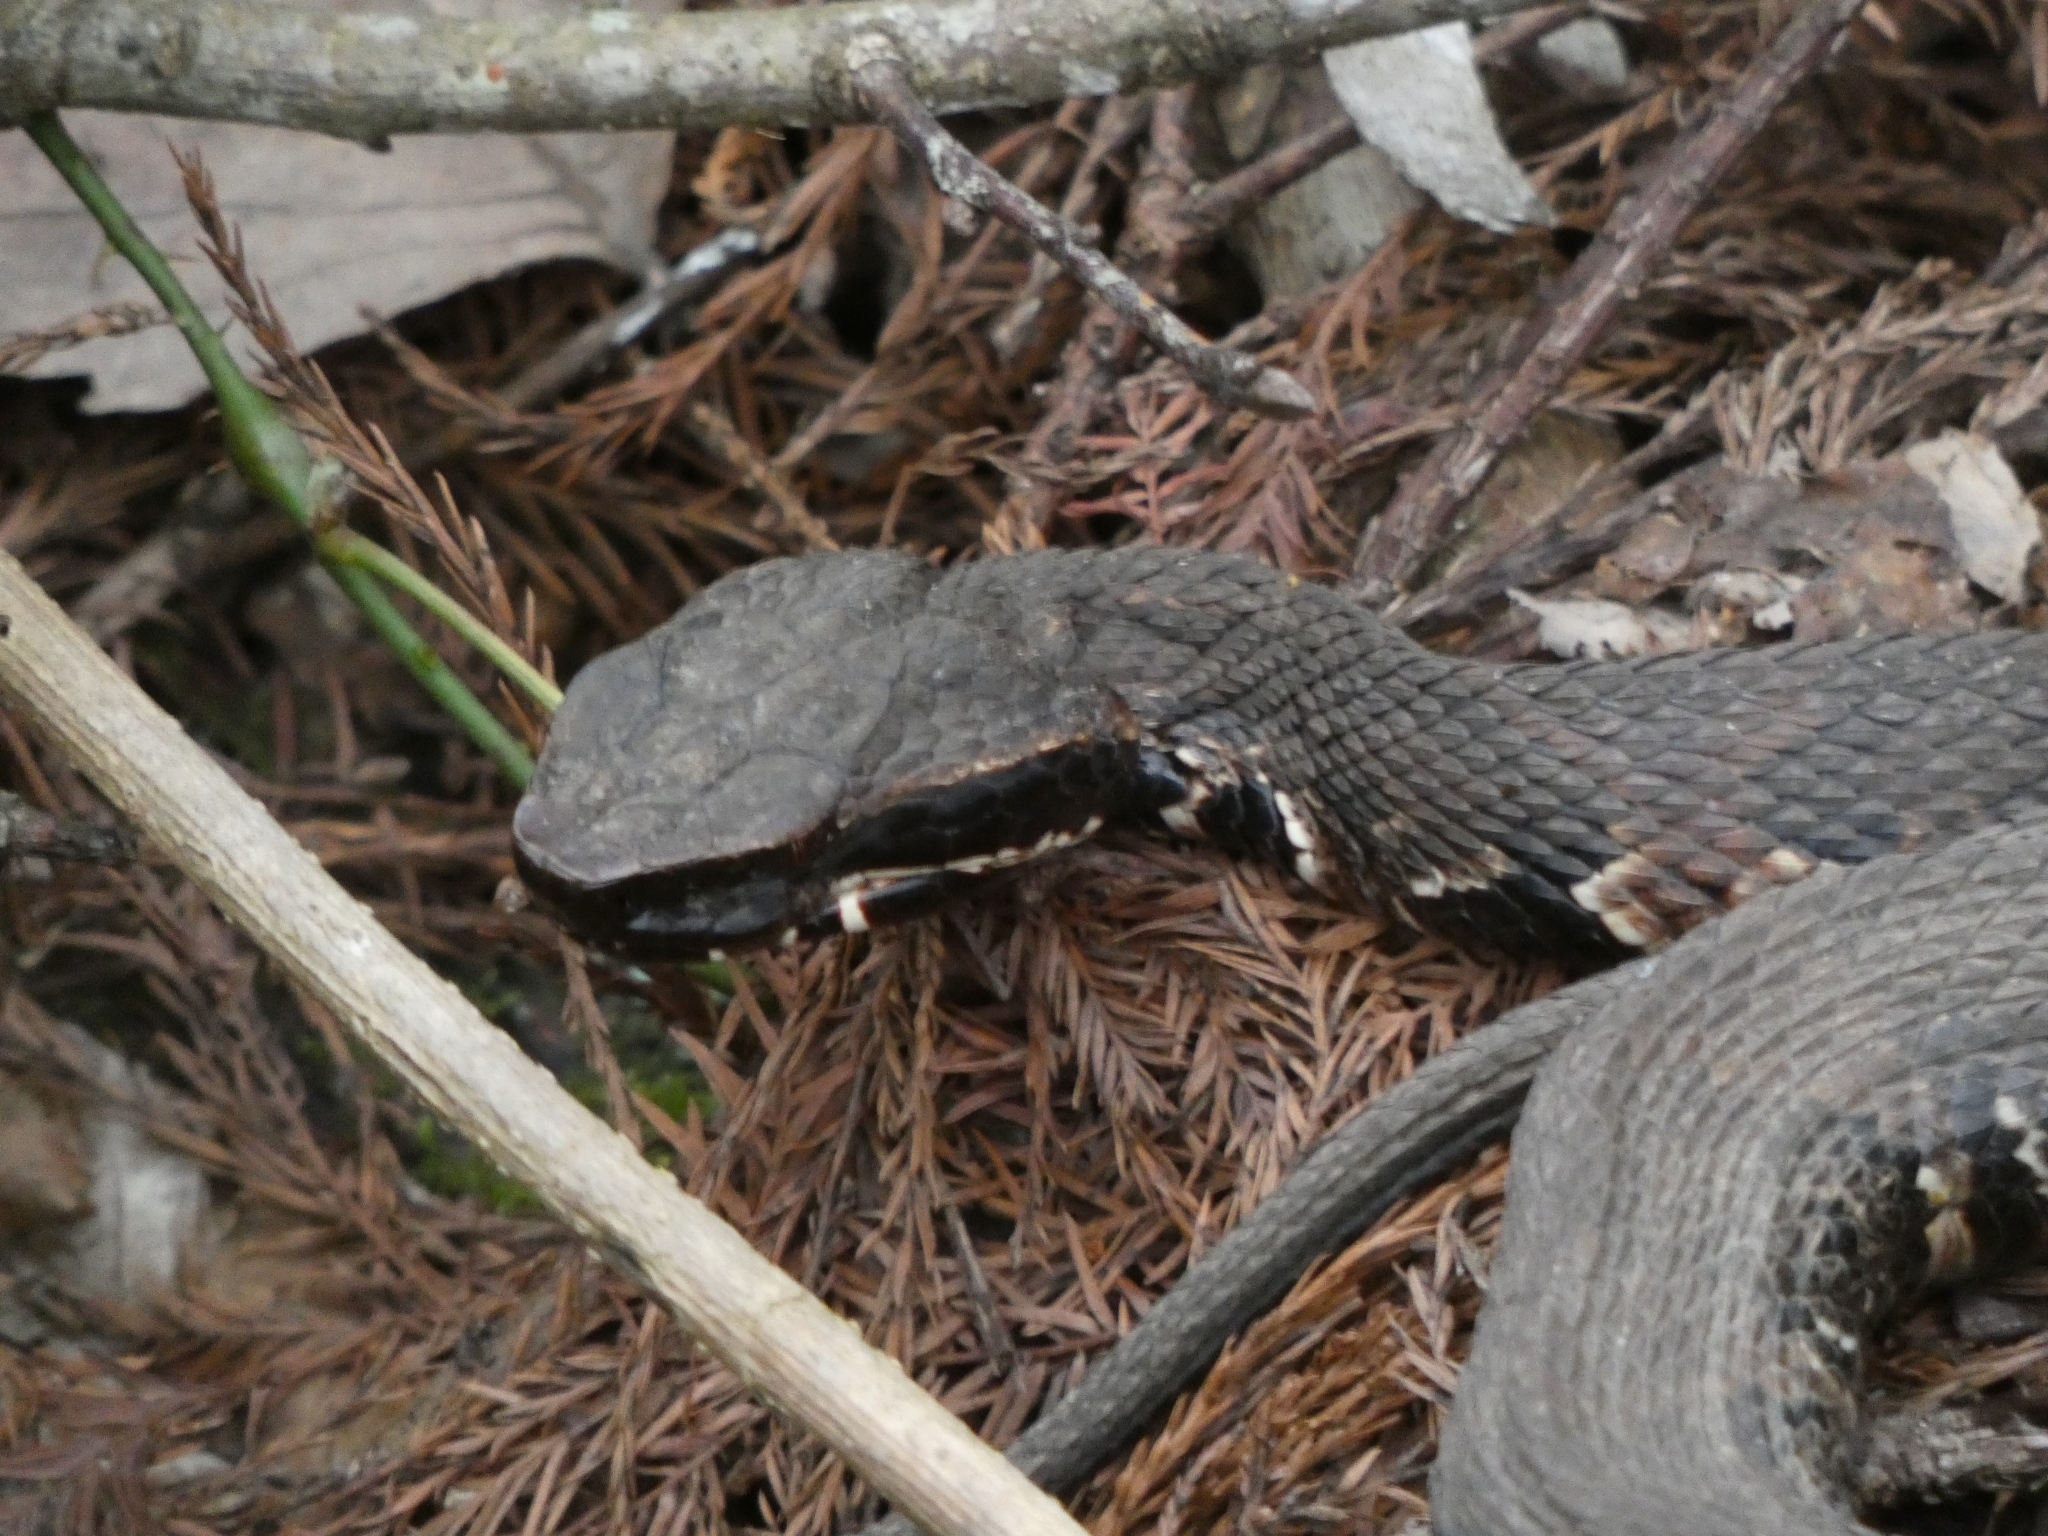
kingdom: Animalia
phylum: Chordata
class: Squamata
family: Viperidae
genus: Agkistrodon
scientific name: Agkistrodon piscivorus
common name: Cottonmouth
